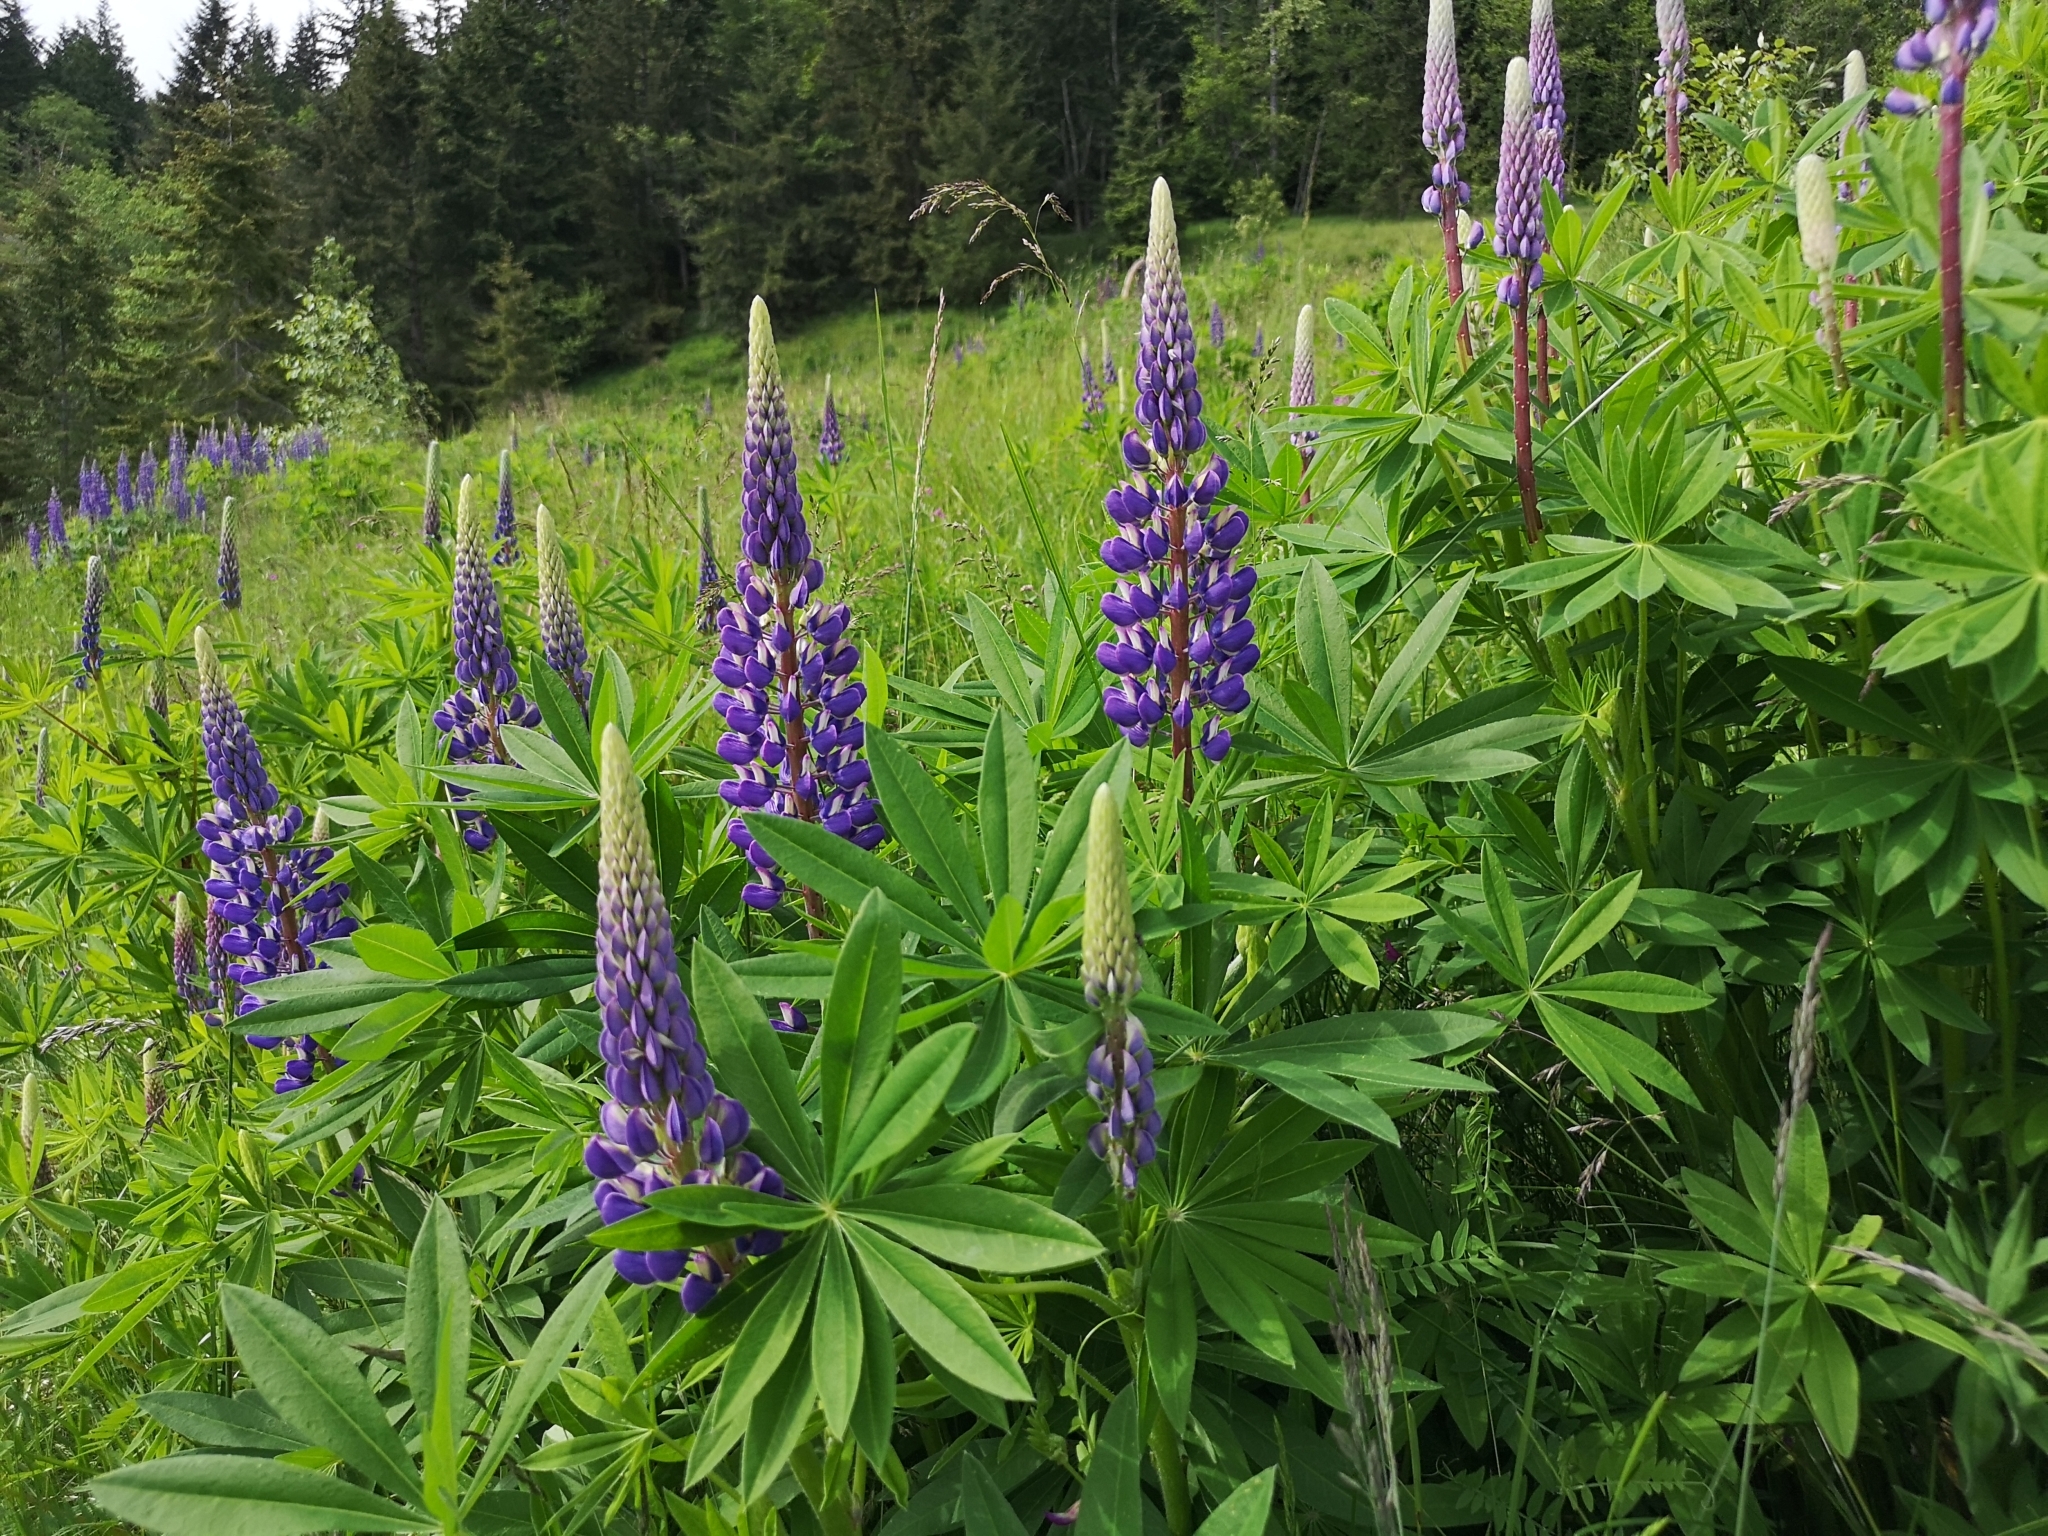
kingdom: Plantae
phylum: Tracheophyta
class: Magnoliopsida
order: Fabales
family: Fabaceae
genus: Lupinus
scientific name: Lupinus polyphyllus
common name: Garden lupin
